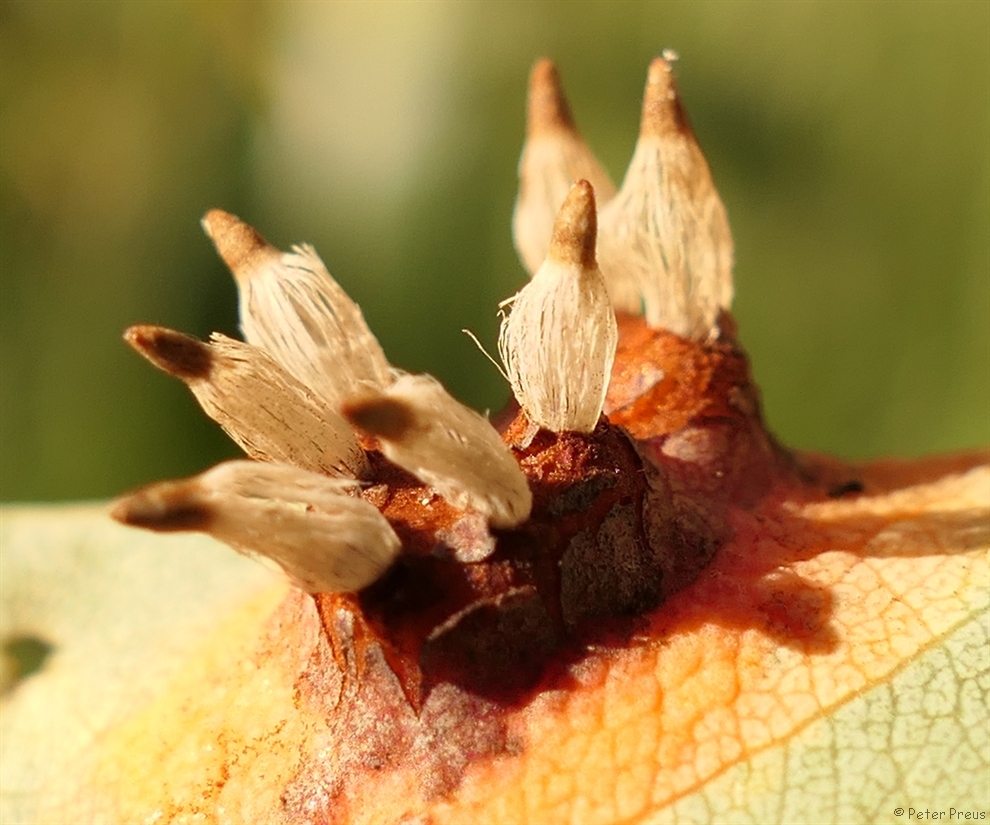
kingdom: Fungi
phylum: Basidiomycota
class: Pucciniomycetes
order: Pucciniales
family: Gymnosporangiaceae
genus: Gymnosporangium
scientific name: Gymnosporangium sabinae
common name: Pear trellis rust fungus
